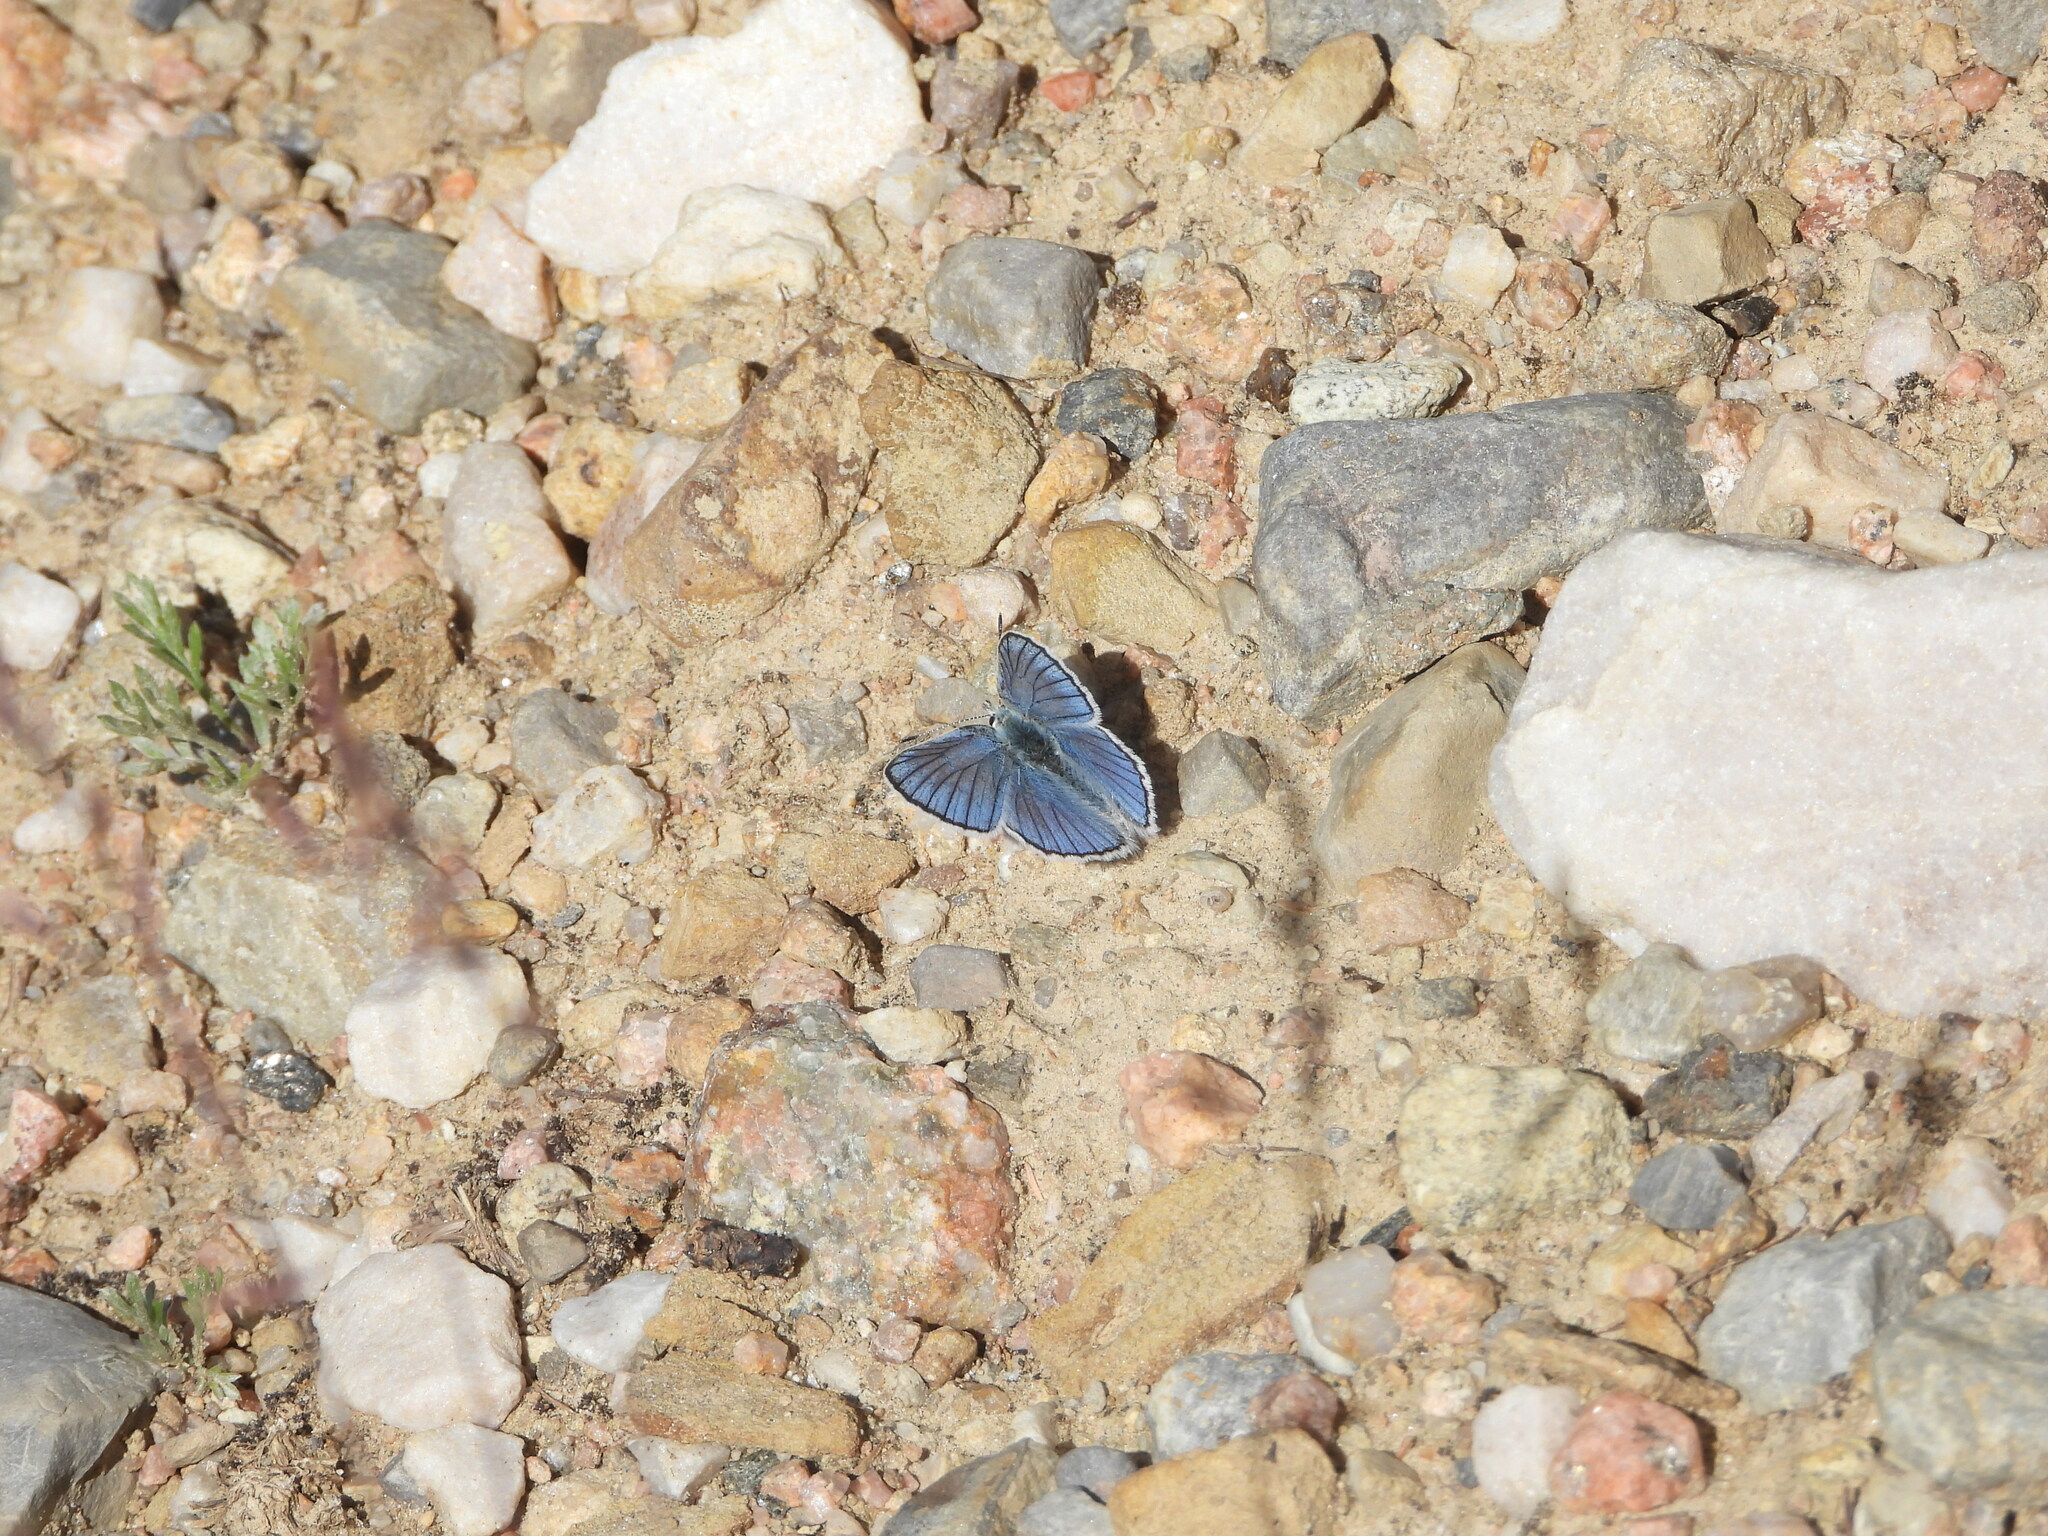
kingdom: Animalia
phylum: Arthropoda
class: Insecta
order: Lepidoptera
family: Lycaenidae
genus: Tharsalea
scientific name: Tharsalea heteronea
